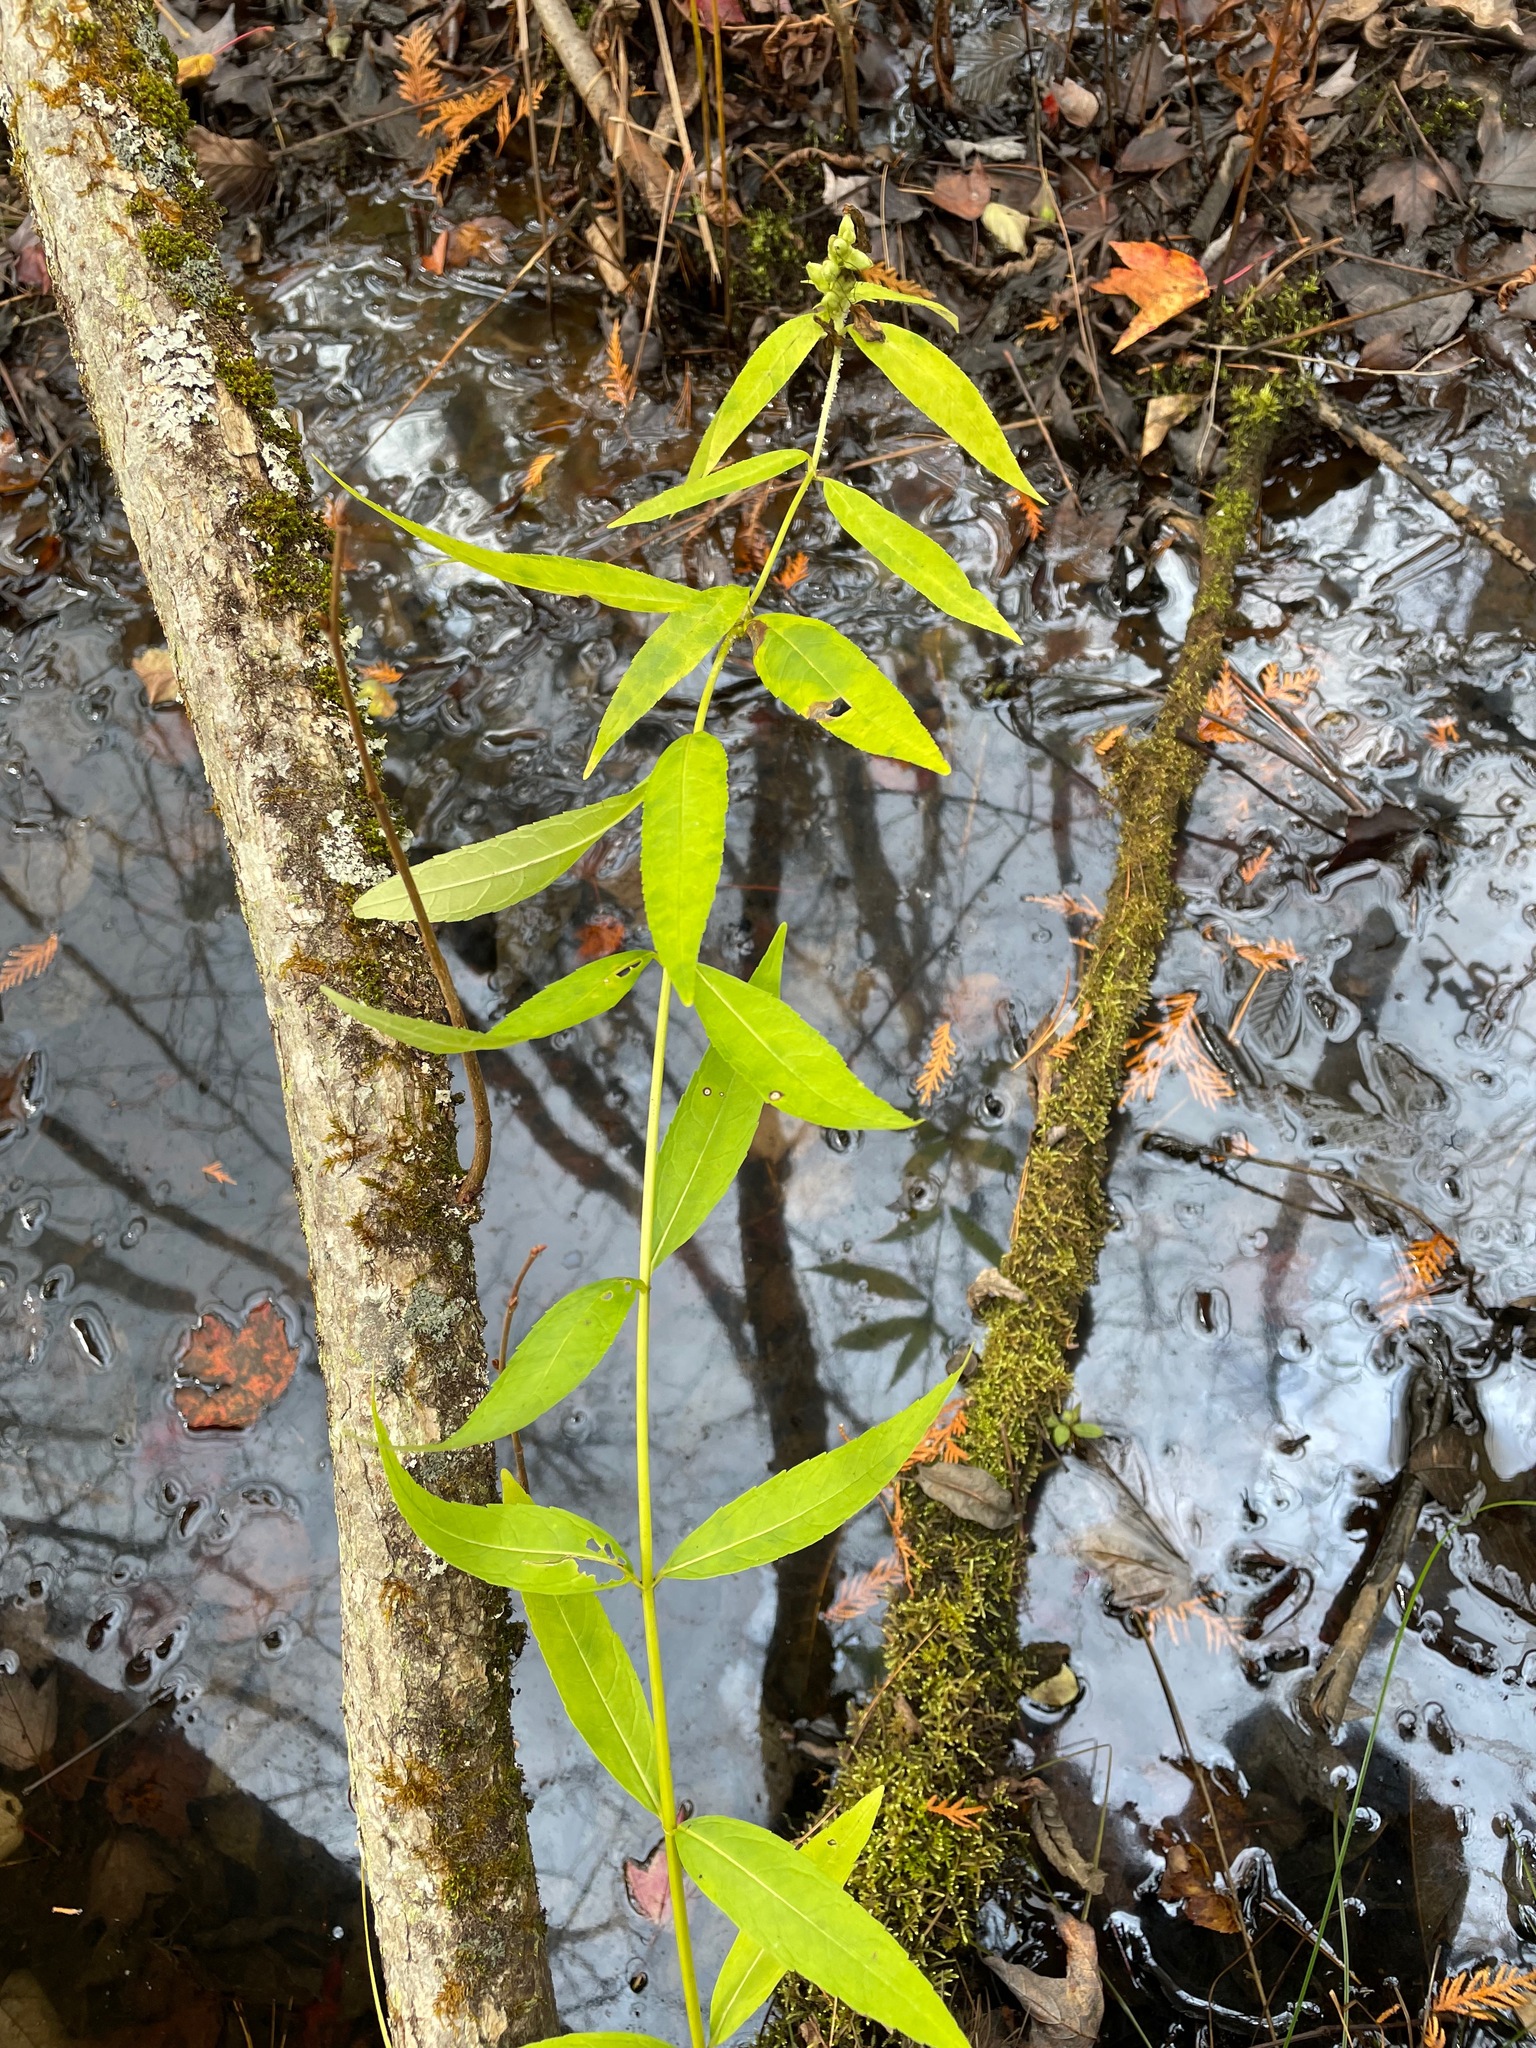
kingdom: Plantae
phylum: Tracheophyta
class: Magnoliopsida
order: Lamiales
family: Plantaginaceae
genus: Chelone
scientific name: Chelone glabra
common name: Snakehead
